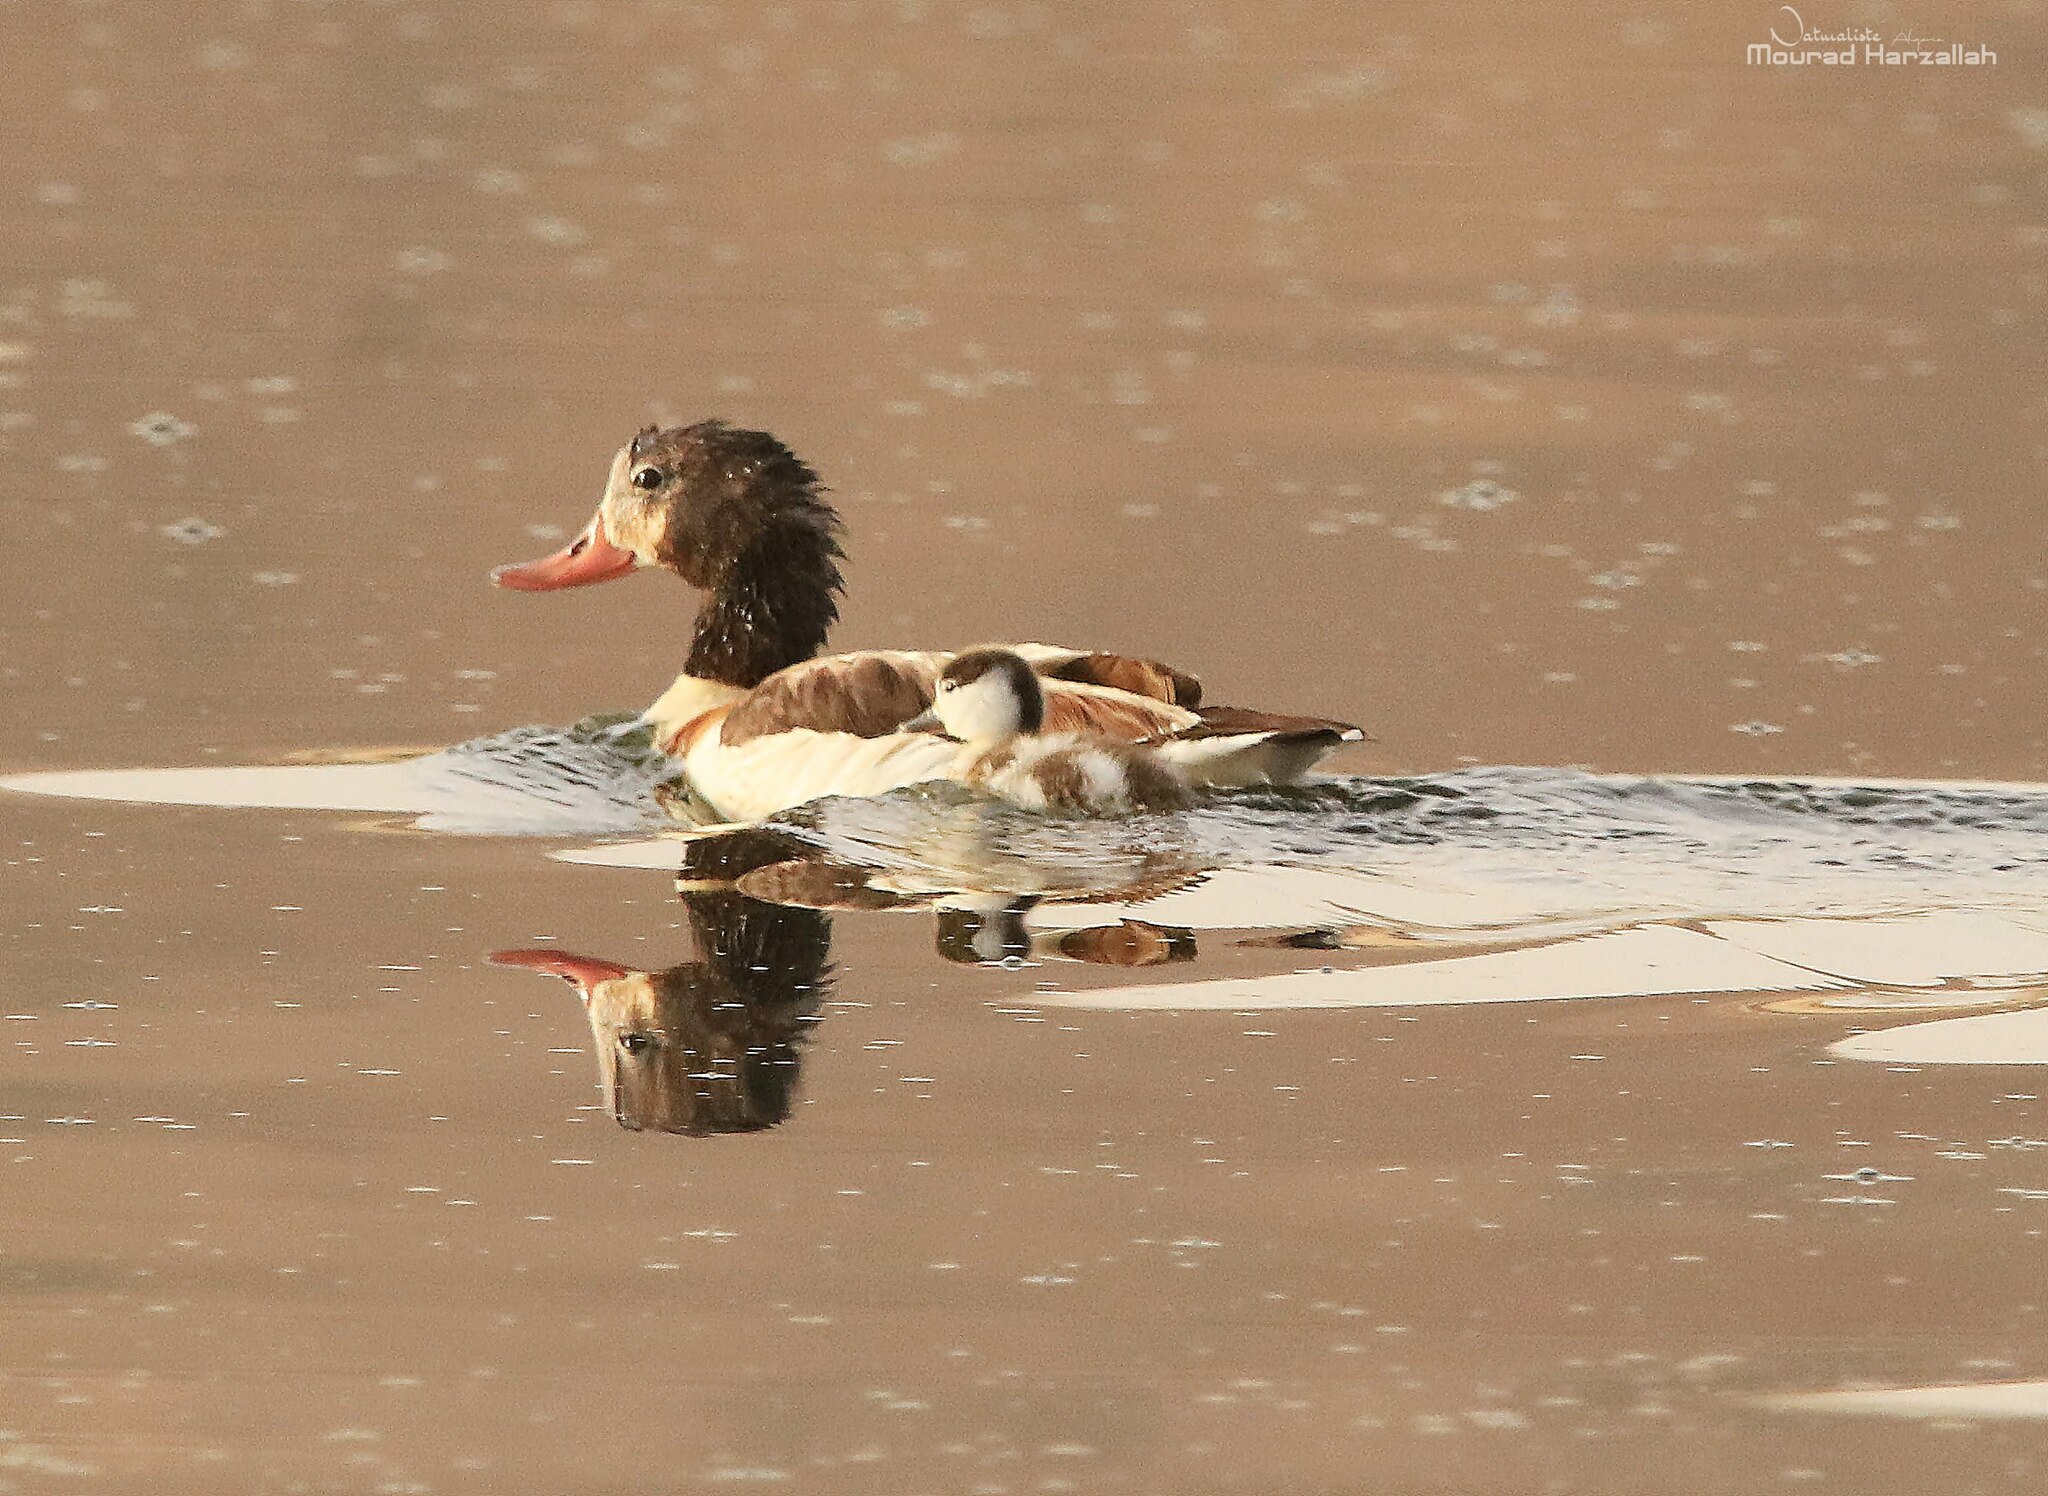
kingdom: Animalia
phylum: Chordata
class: Aves
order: Anseriformes
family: Anatidae
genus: Tadorna
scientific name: Tadorna tadorna
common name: Common shelduck
